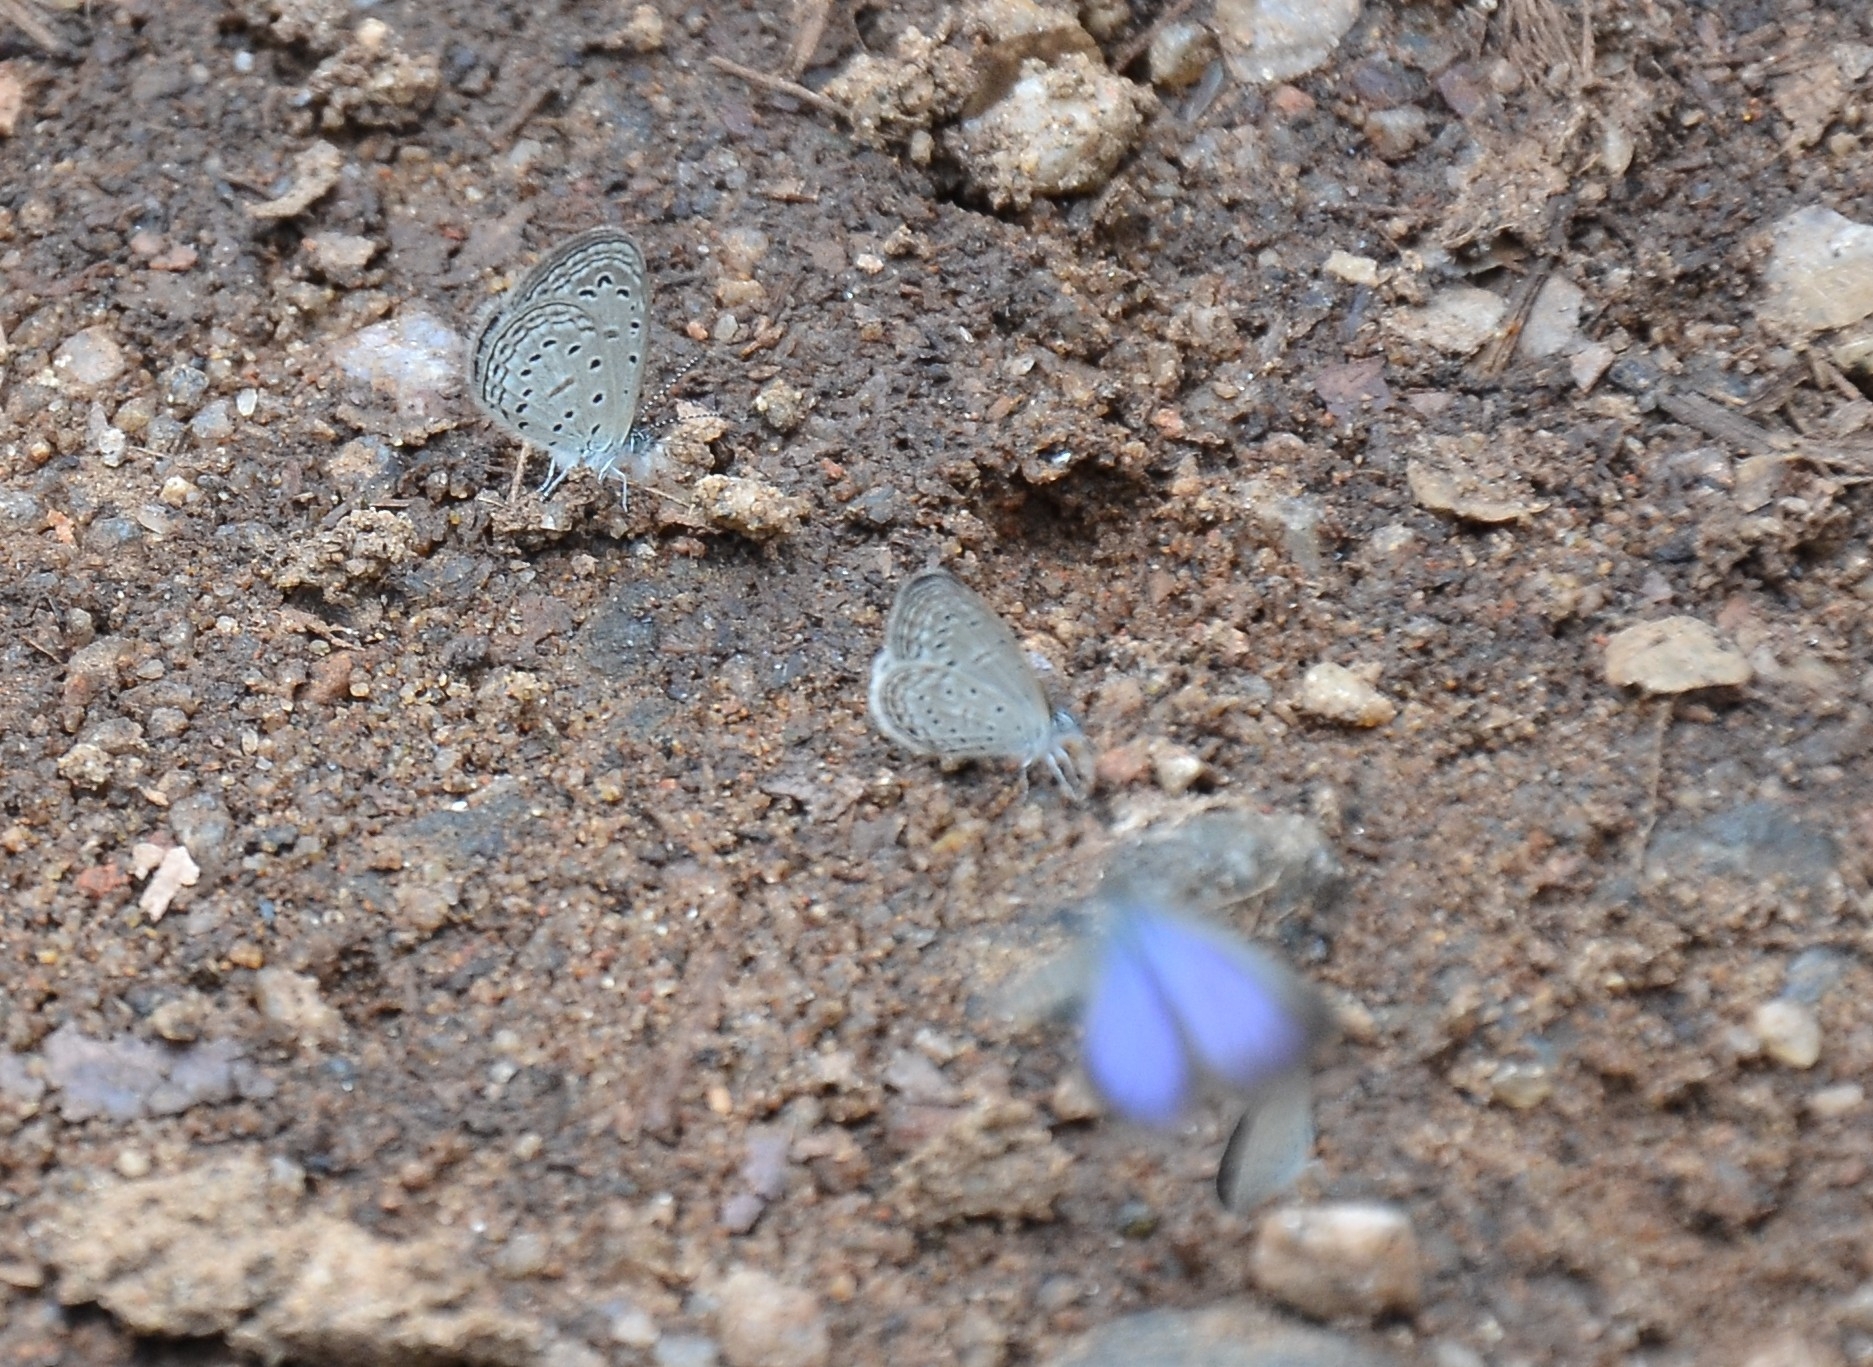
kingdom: Animalia
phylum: Arthropoda
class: Insecta
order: Lepidoptera
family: Lycaenidae
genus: Zizula
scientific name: Zizula hylax
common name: Gaika blue
